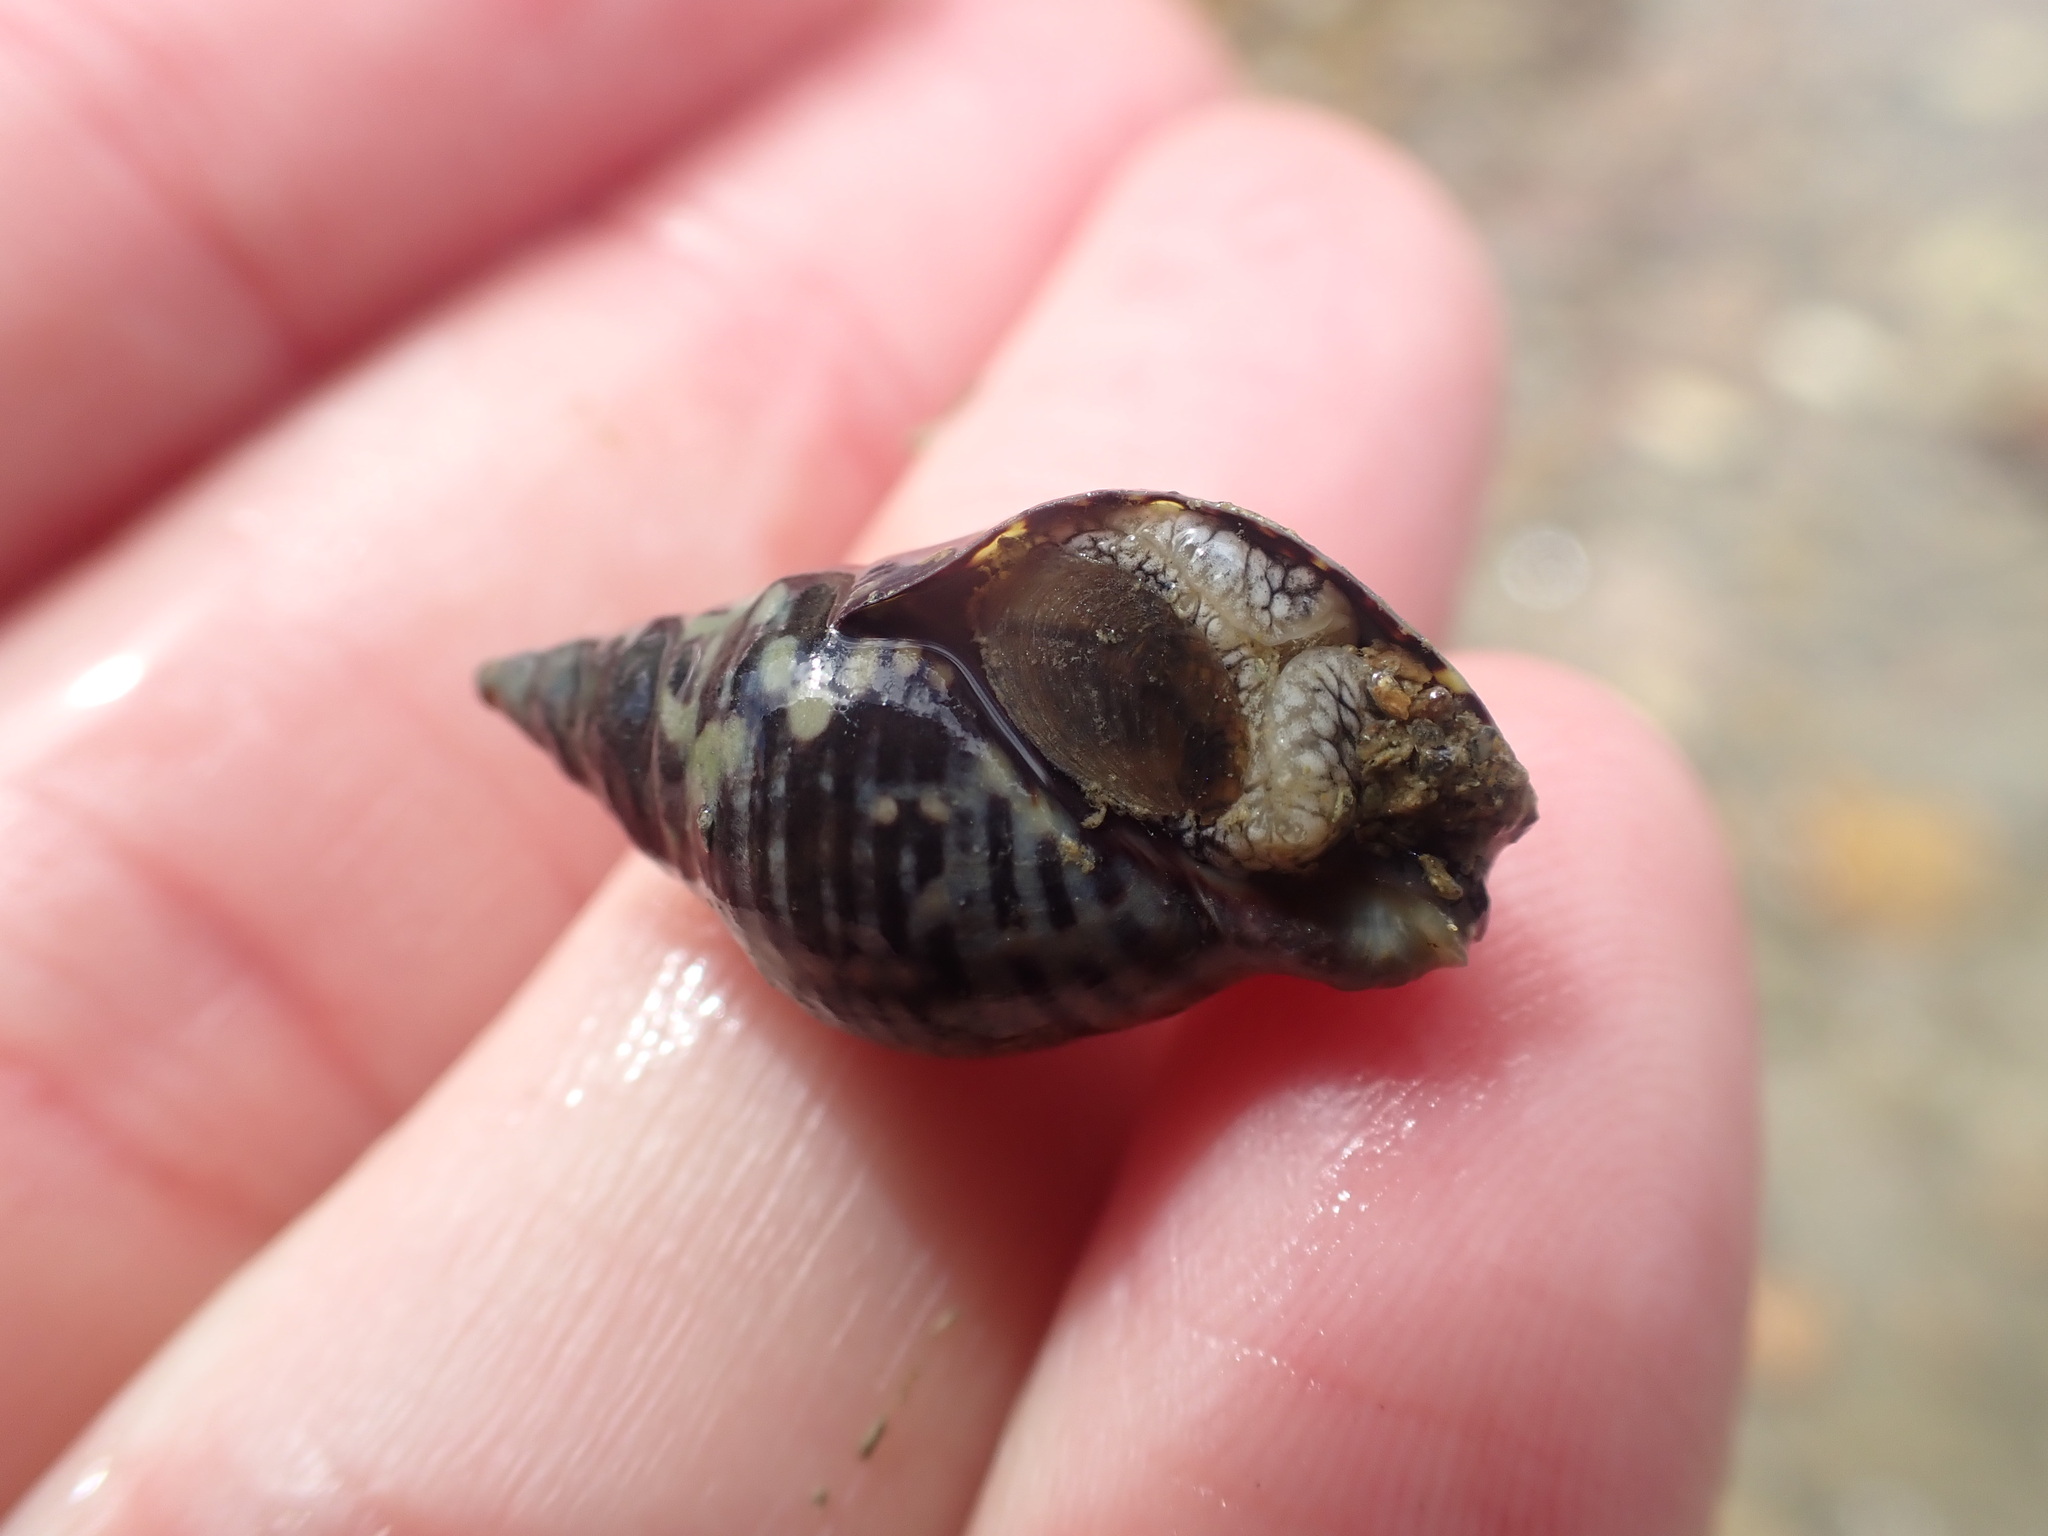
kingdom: Animalia
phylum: Mollusca
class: Gastropoda
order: Neogastropoda
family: Cominellidae
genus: Cominella
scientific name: Cominella maculosa
